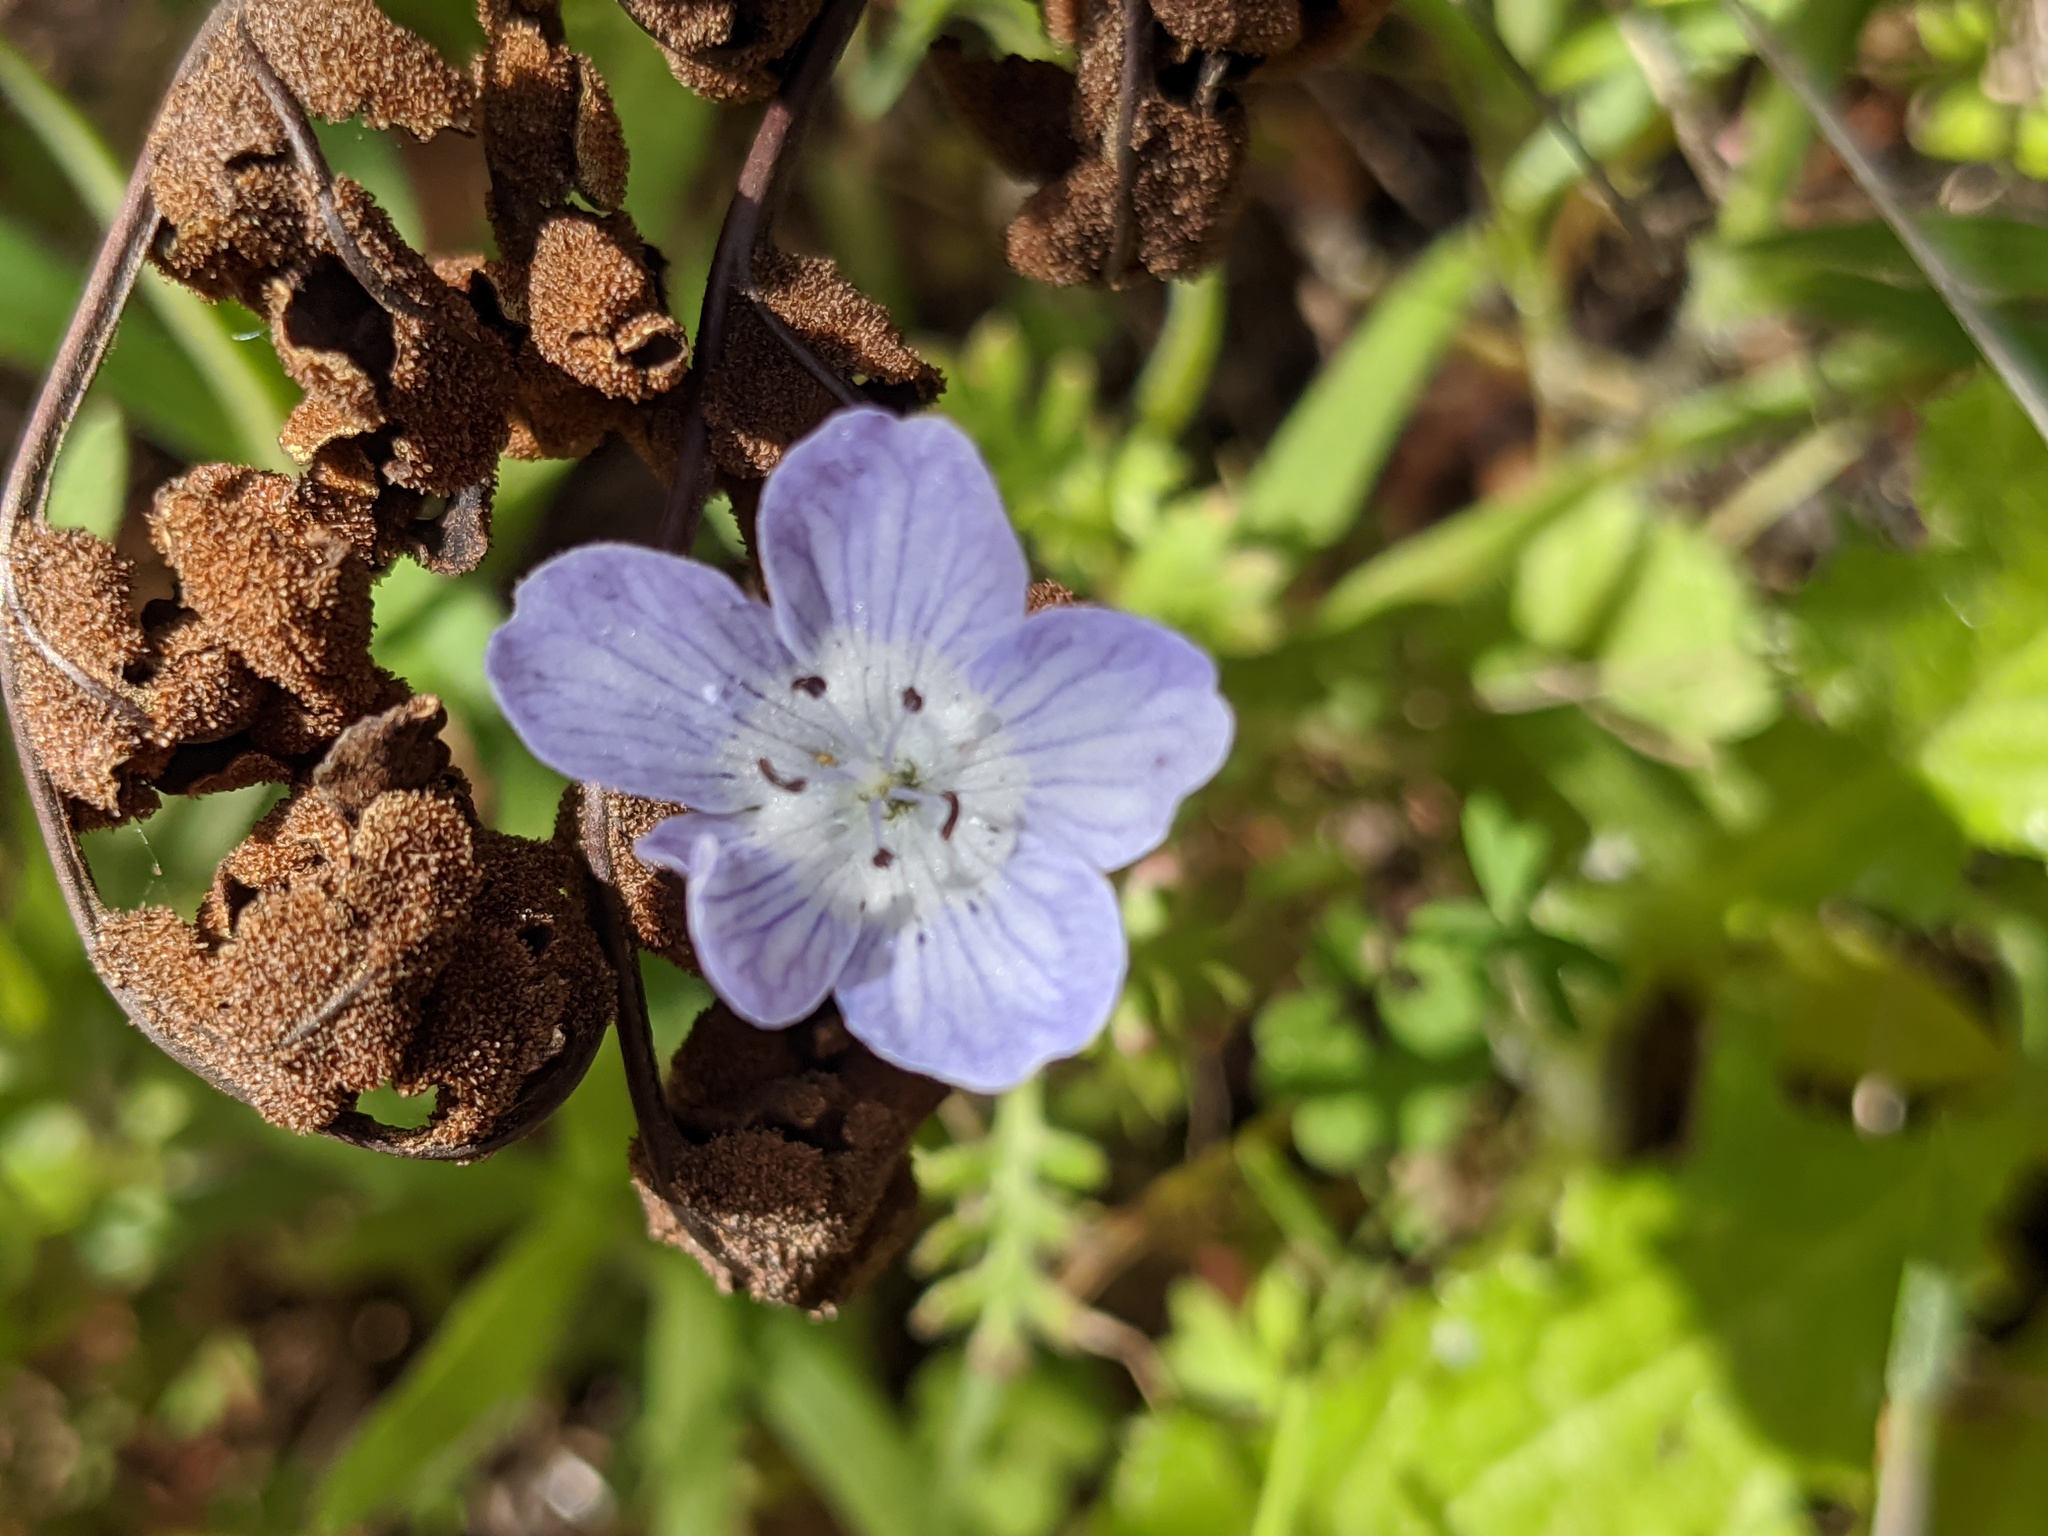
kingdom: Plantae
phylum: Tracheophyta
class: Magnoliopsida
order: Boraginales
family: Hydrophyllaceae
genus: Nemophila
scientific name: Nemophila menziesii
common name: Baby's-blue-eyes
